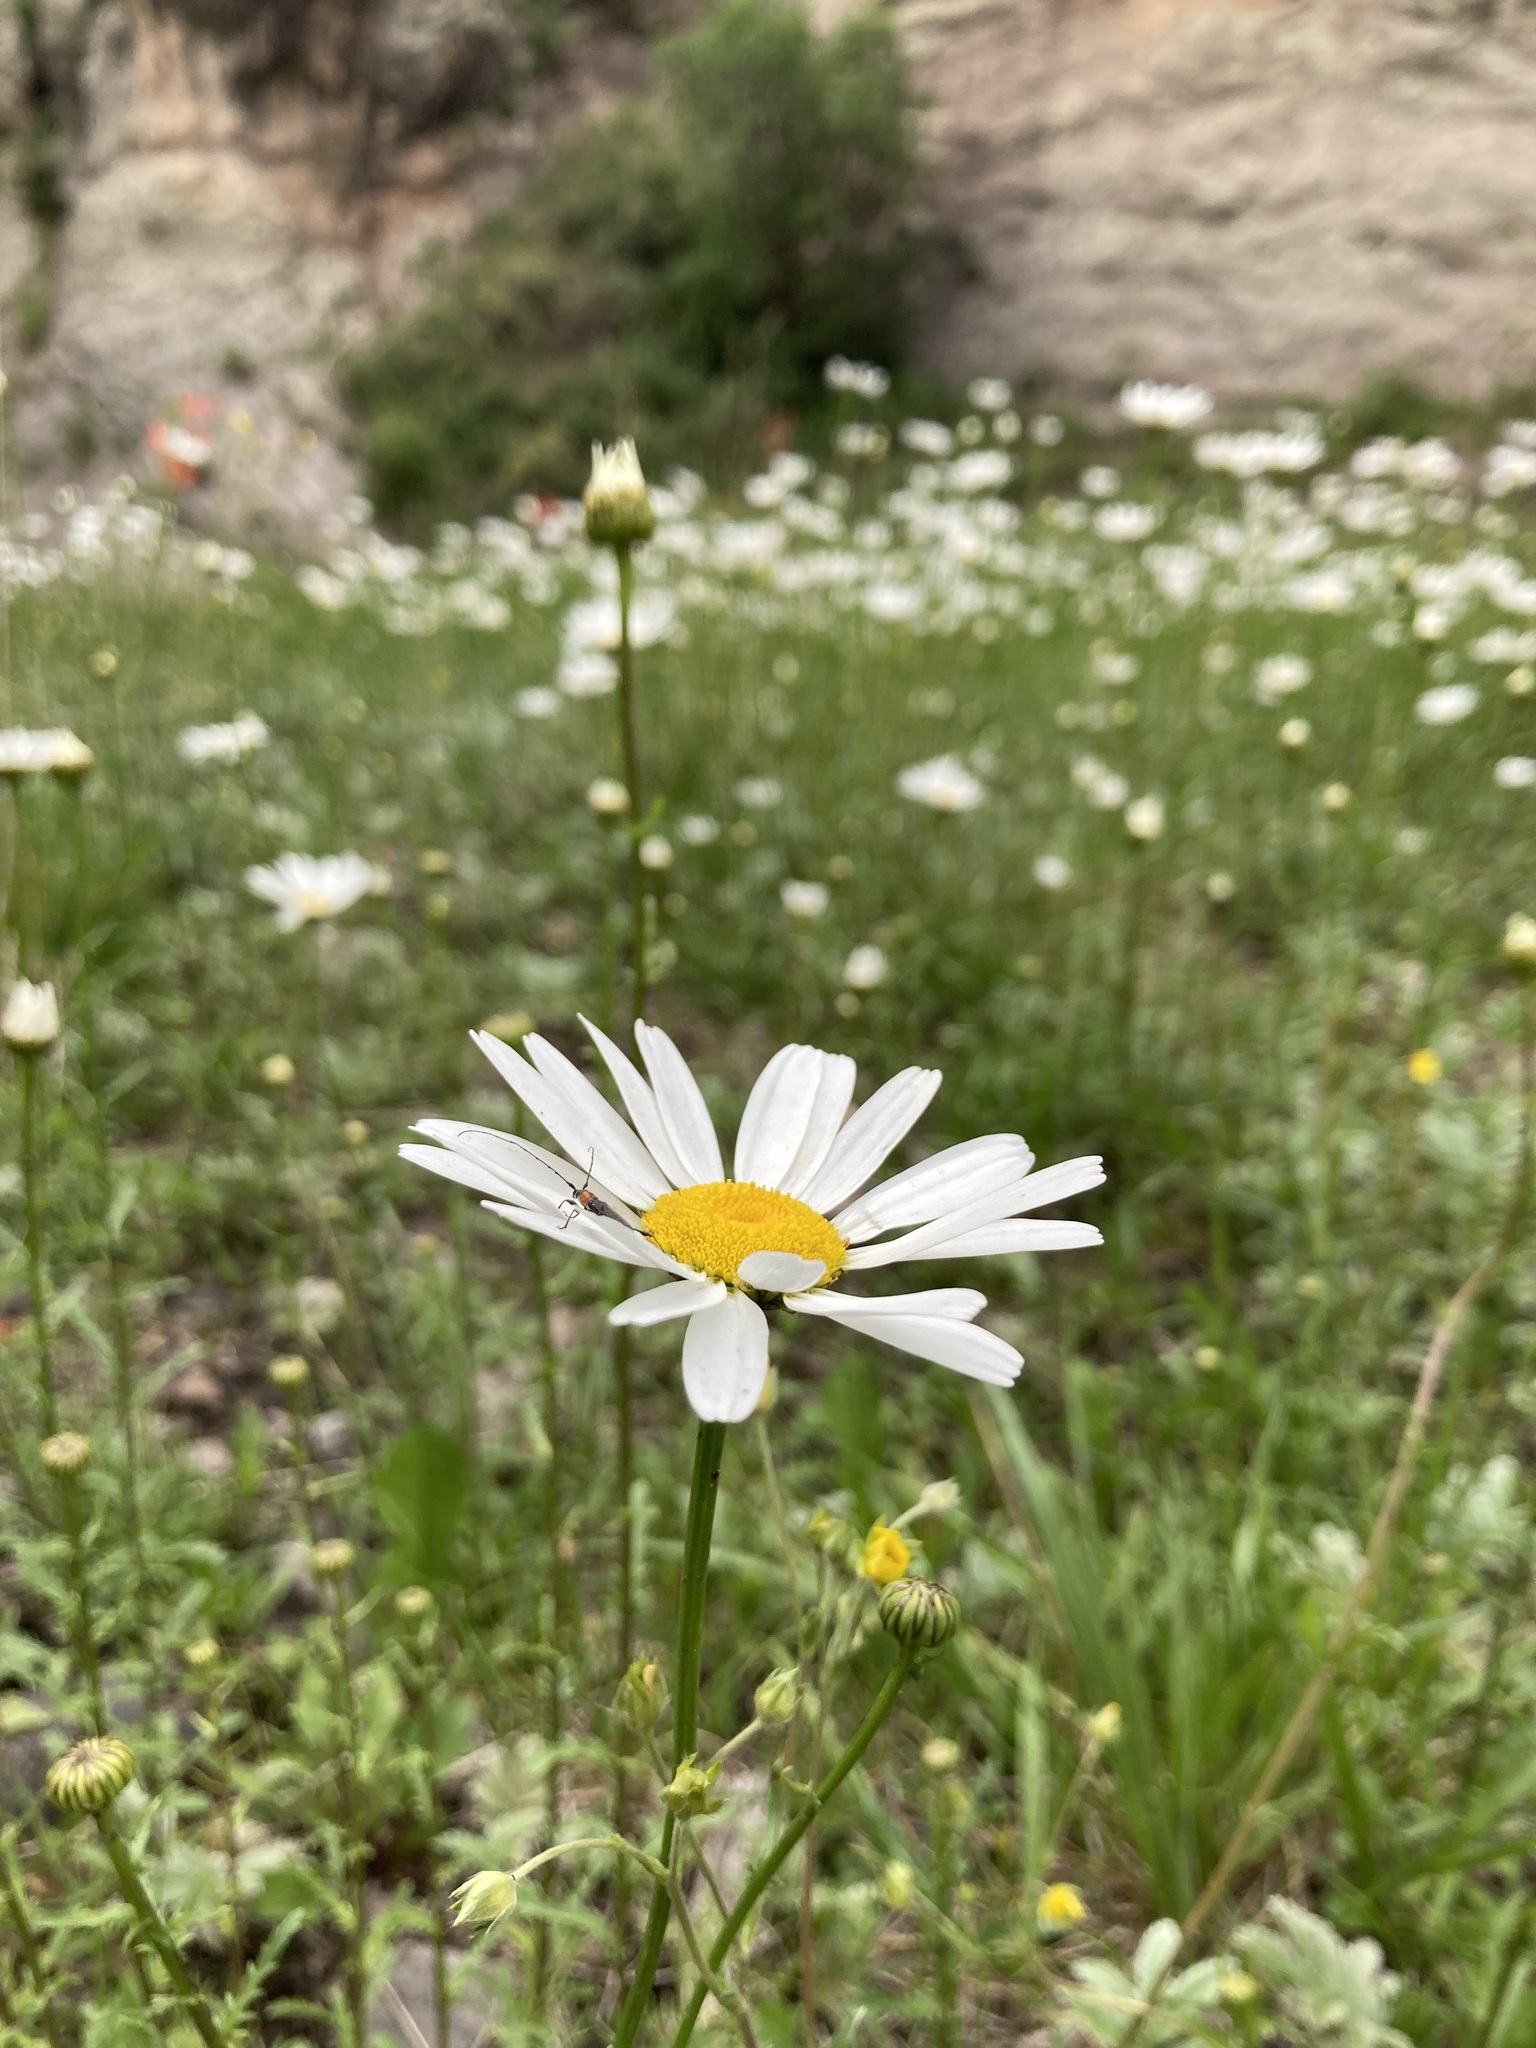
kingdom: Plantae
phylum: Tracheophyta
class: Magnoliopsida
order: Asterales
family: Asteraceae
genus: Leucanthemum
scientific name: Leucanthemum vulgare
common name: Oxeye daisy
